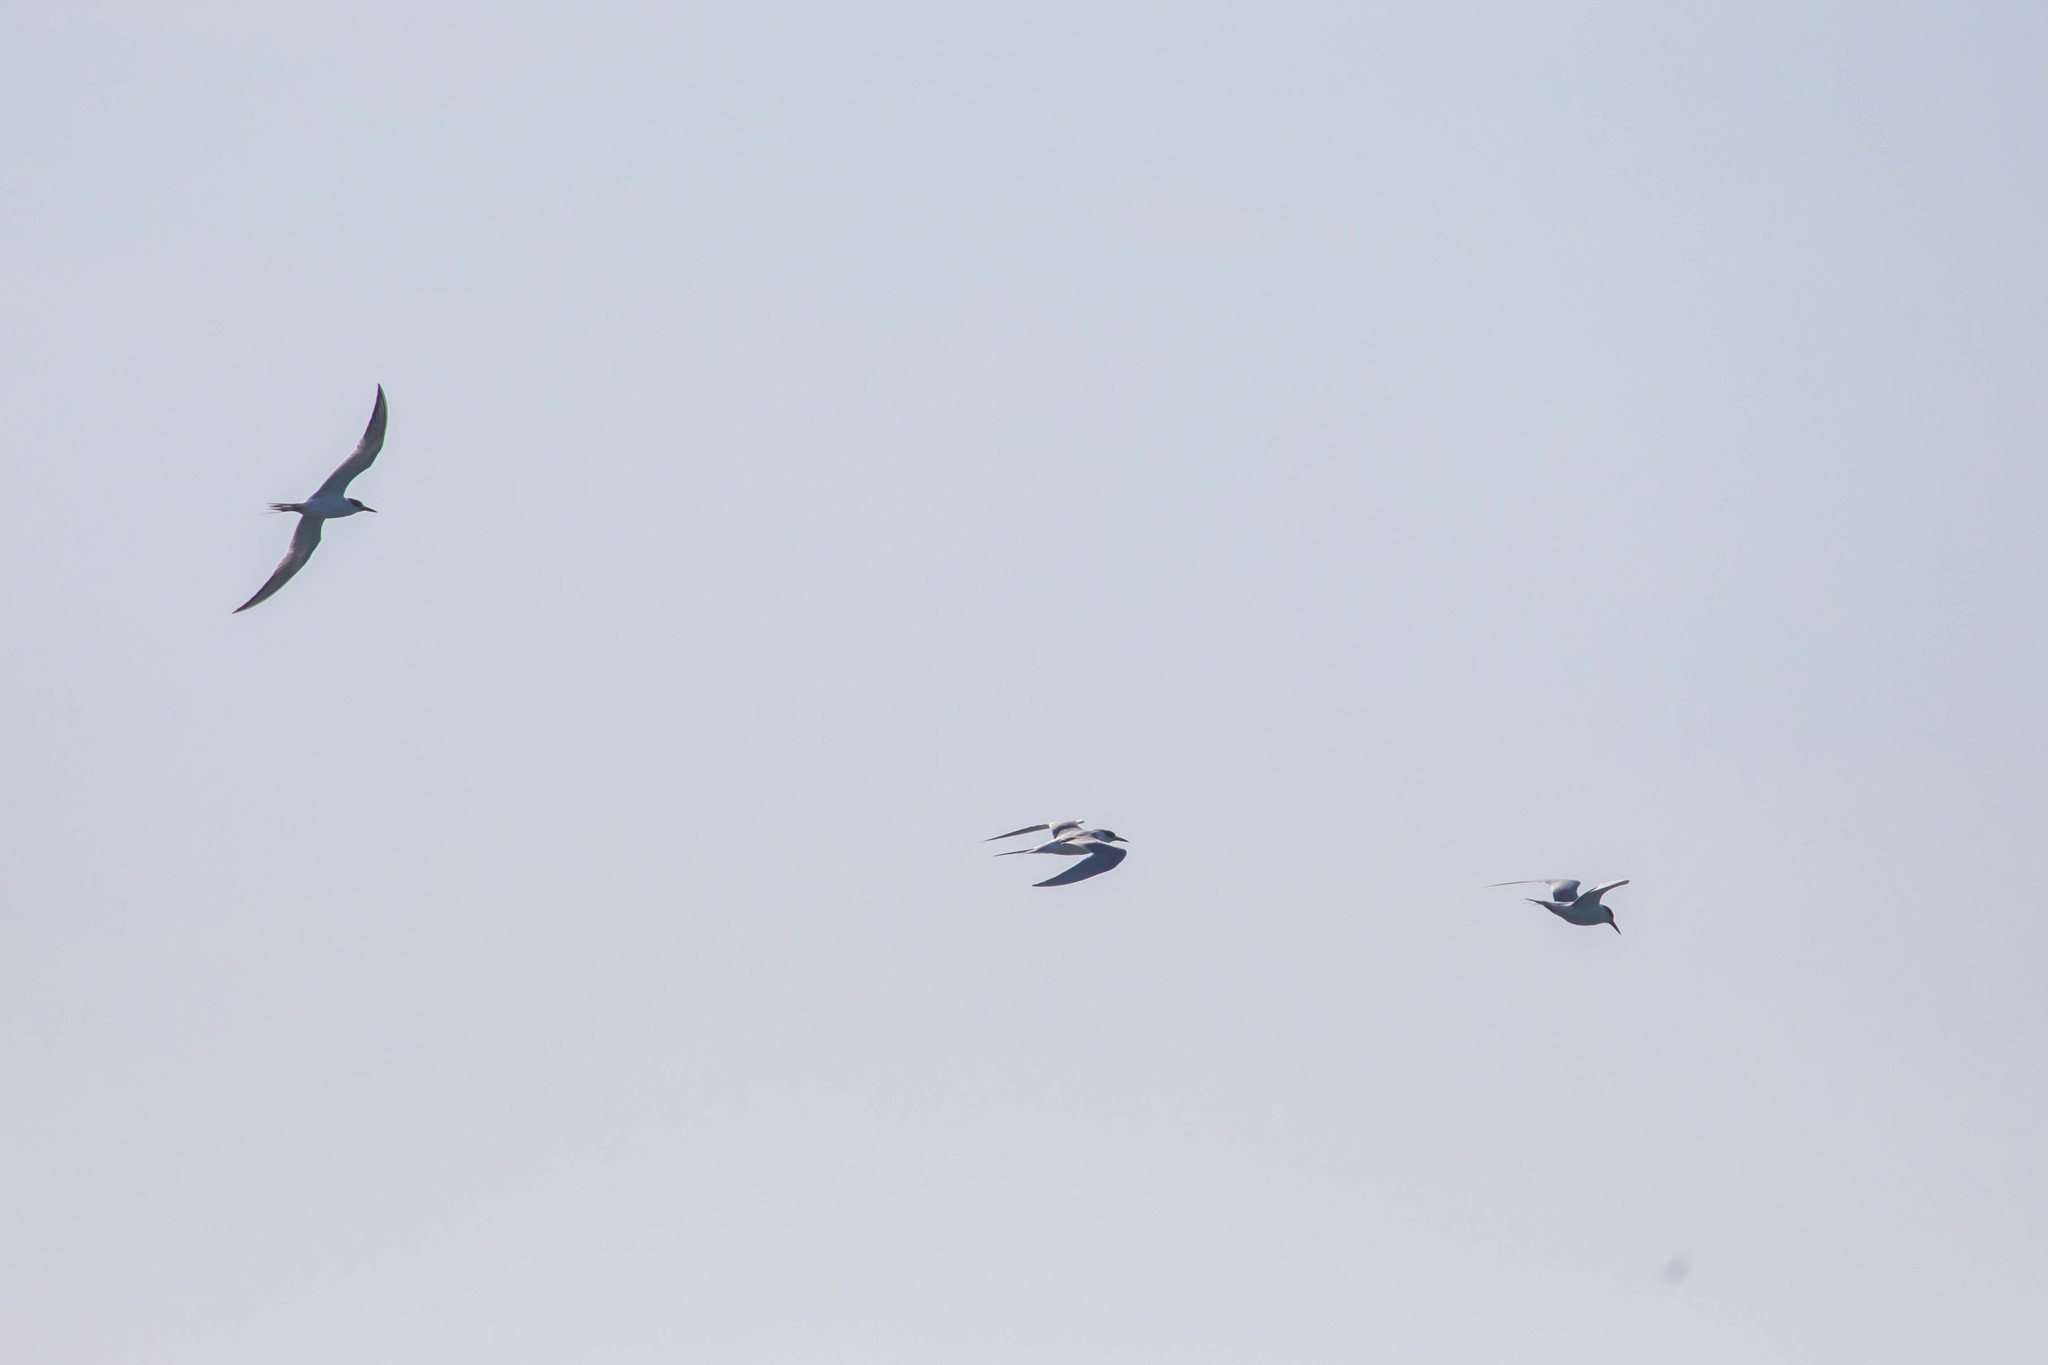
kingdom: Animalia
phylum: Chordata
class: Aves
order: Charadriiformes
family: Laridae
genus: Sterna
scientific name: Sterna forsteri
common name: Forster's tern
